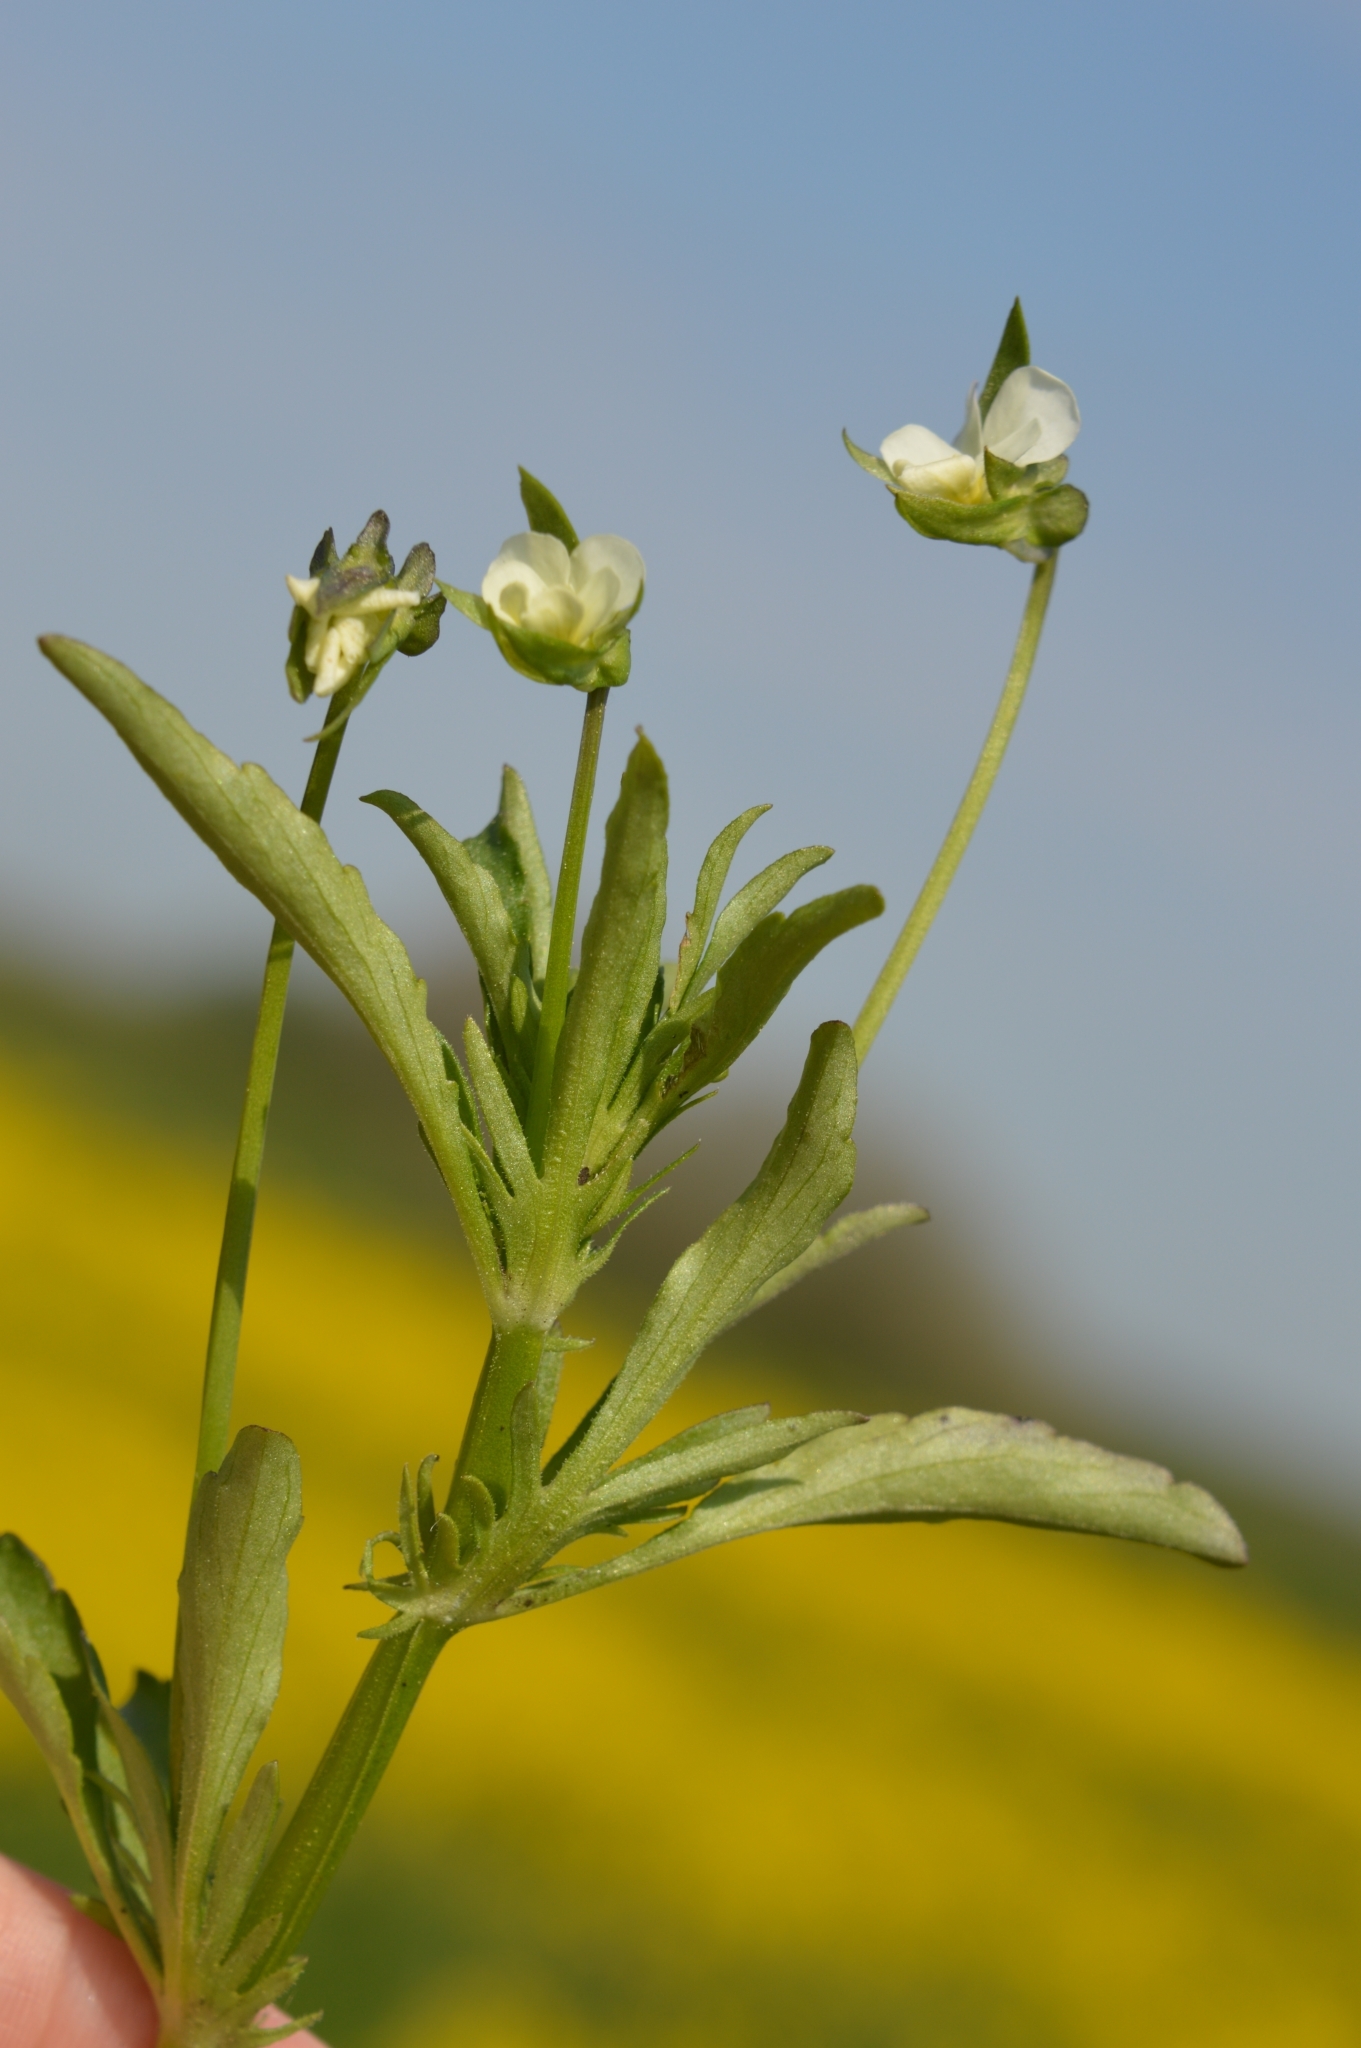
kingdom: Plantae
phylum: Tracheophyta
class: Magnoliopsida
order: Malpighiales
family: Violaceae
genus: Viola
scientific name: Viola arvensis
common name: Field pansy
